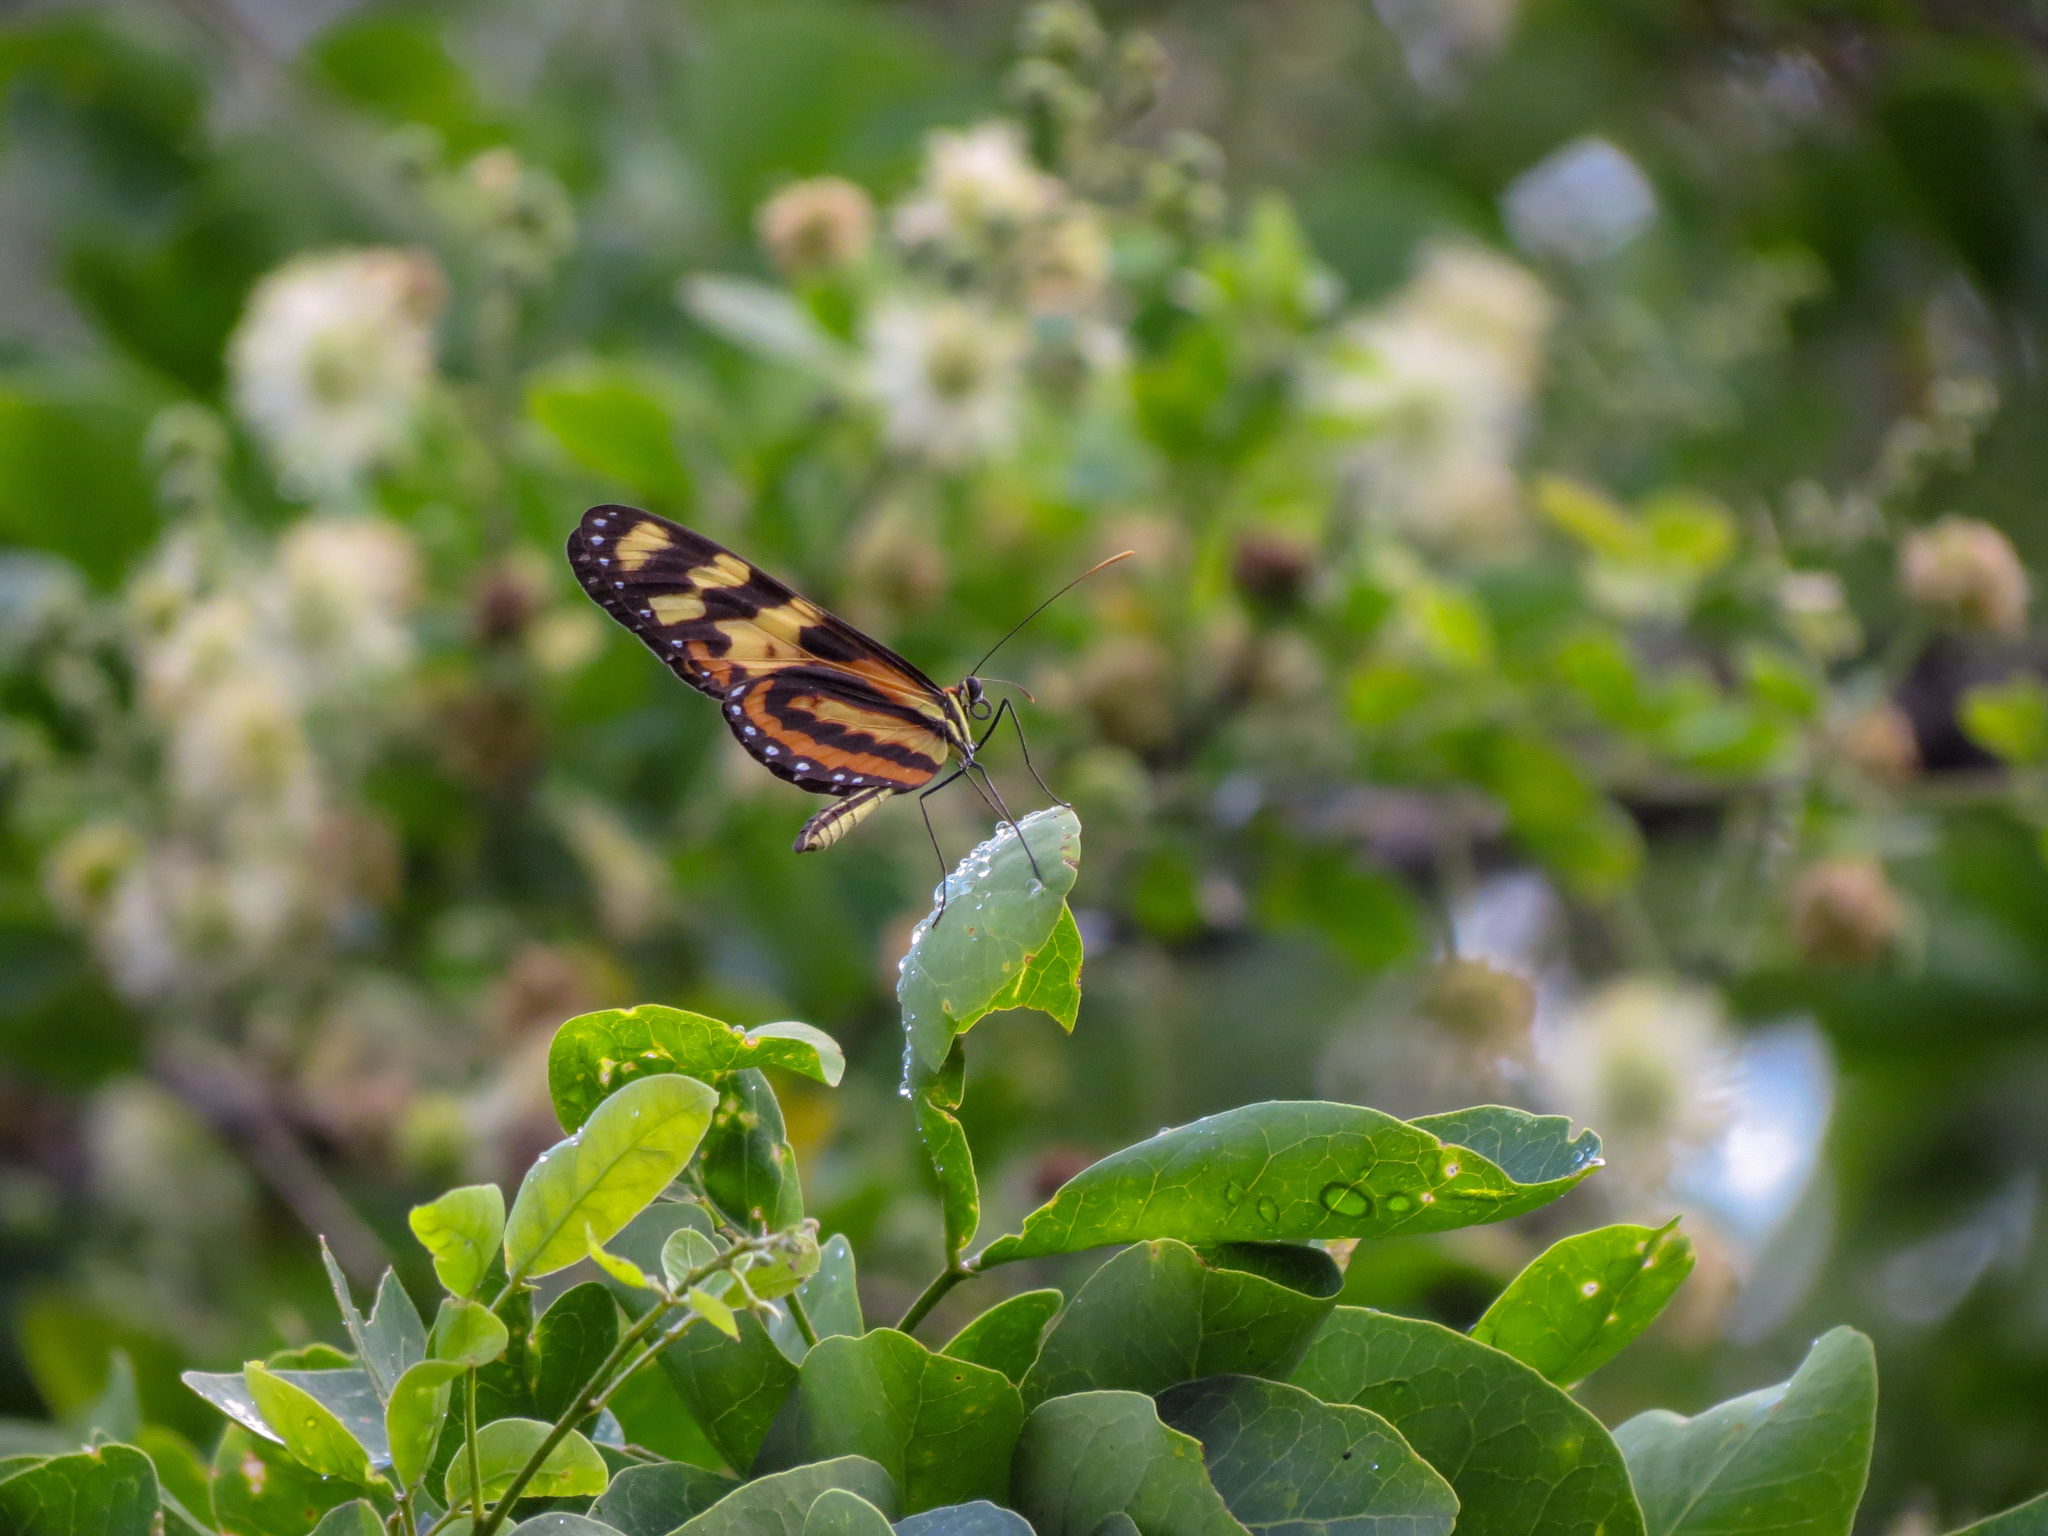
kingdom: Animalia
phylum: Arthropoda
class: Insecta
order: Lepidoptera
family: Nymphalidae
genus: Mechanitis
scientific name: Mechanitis lysimnia
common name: Lysimnia tigerwing
